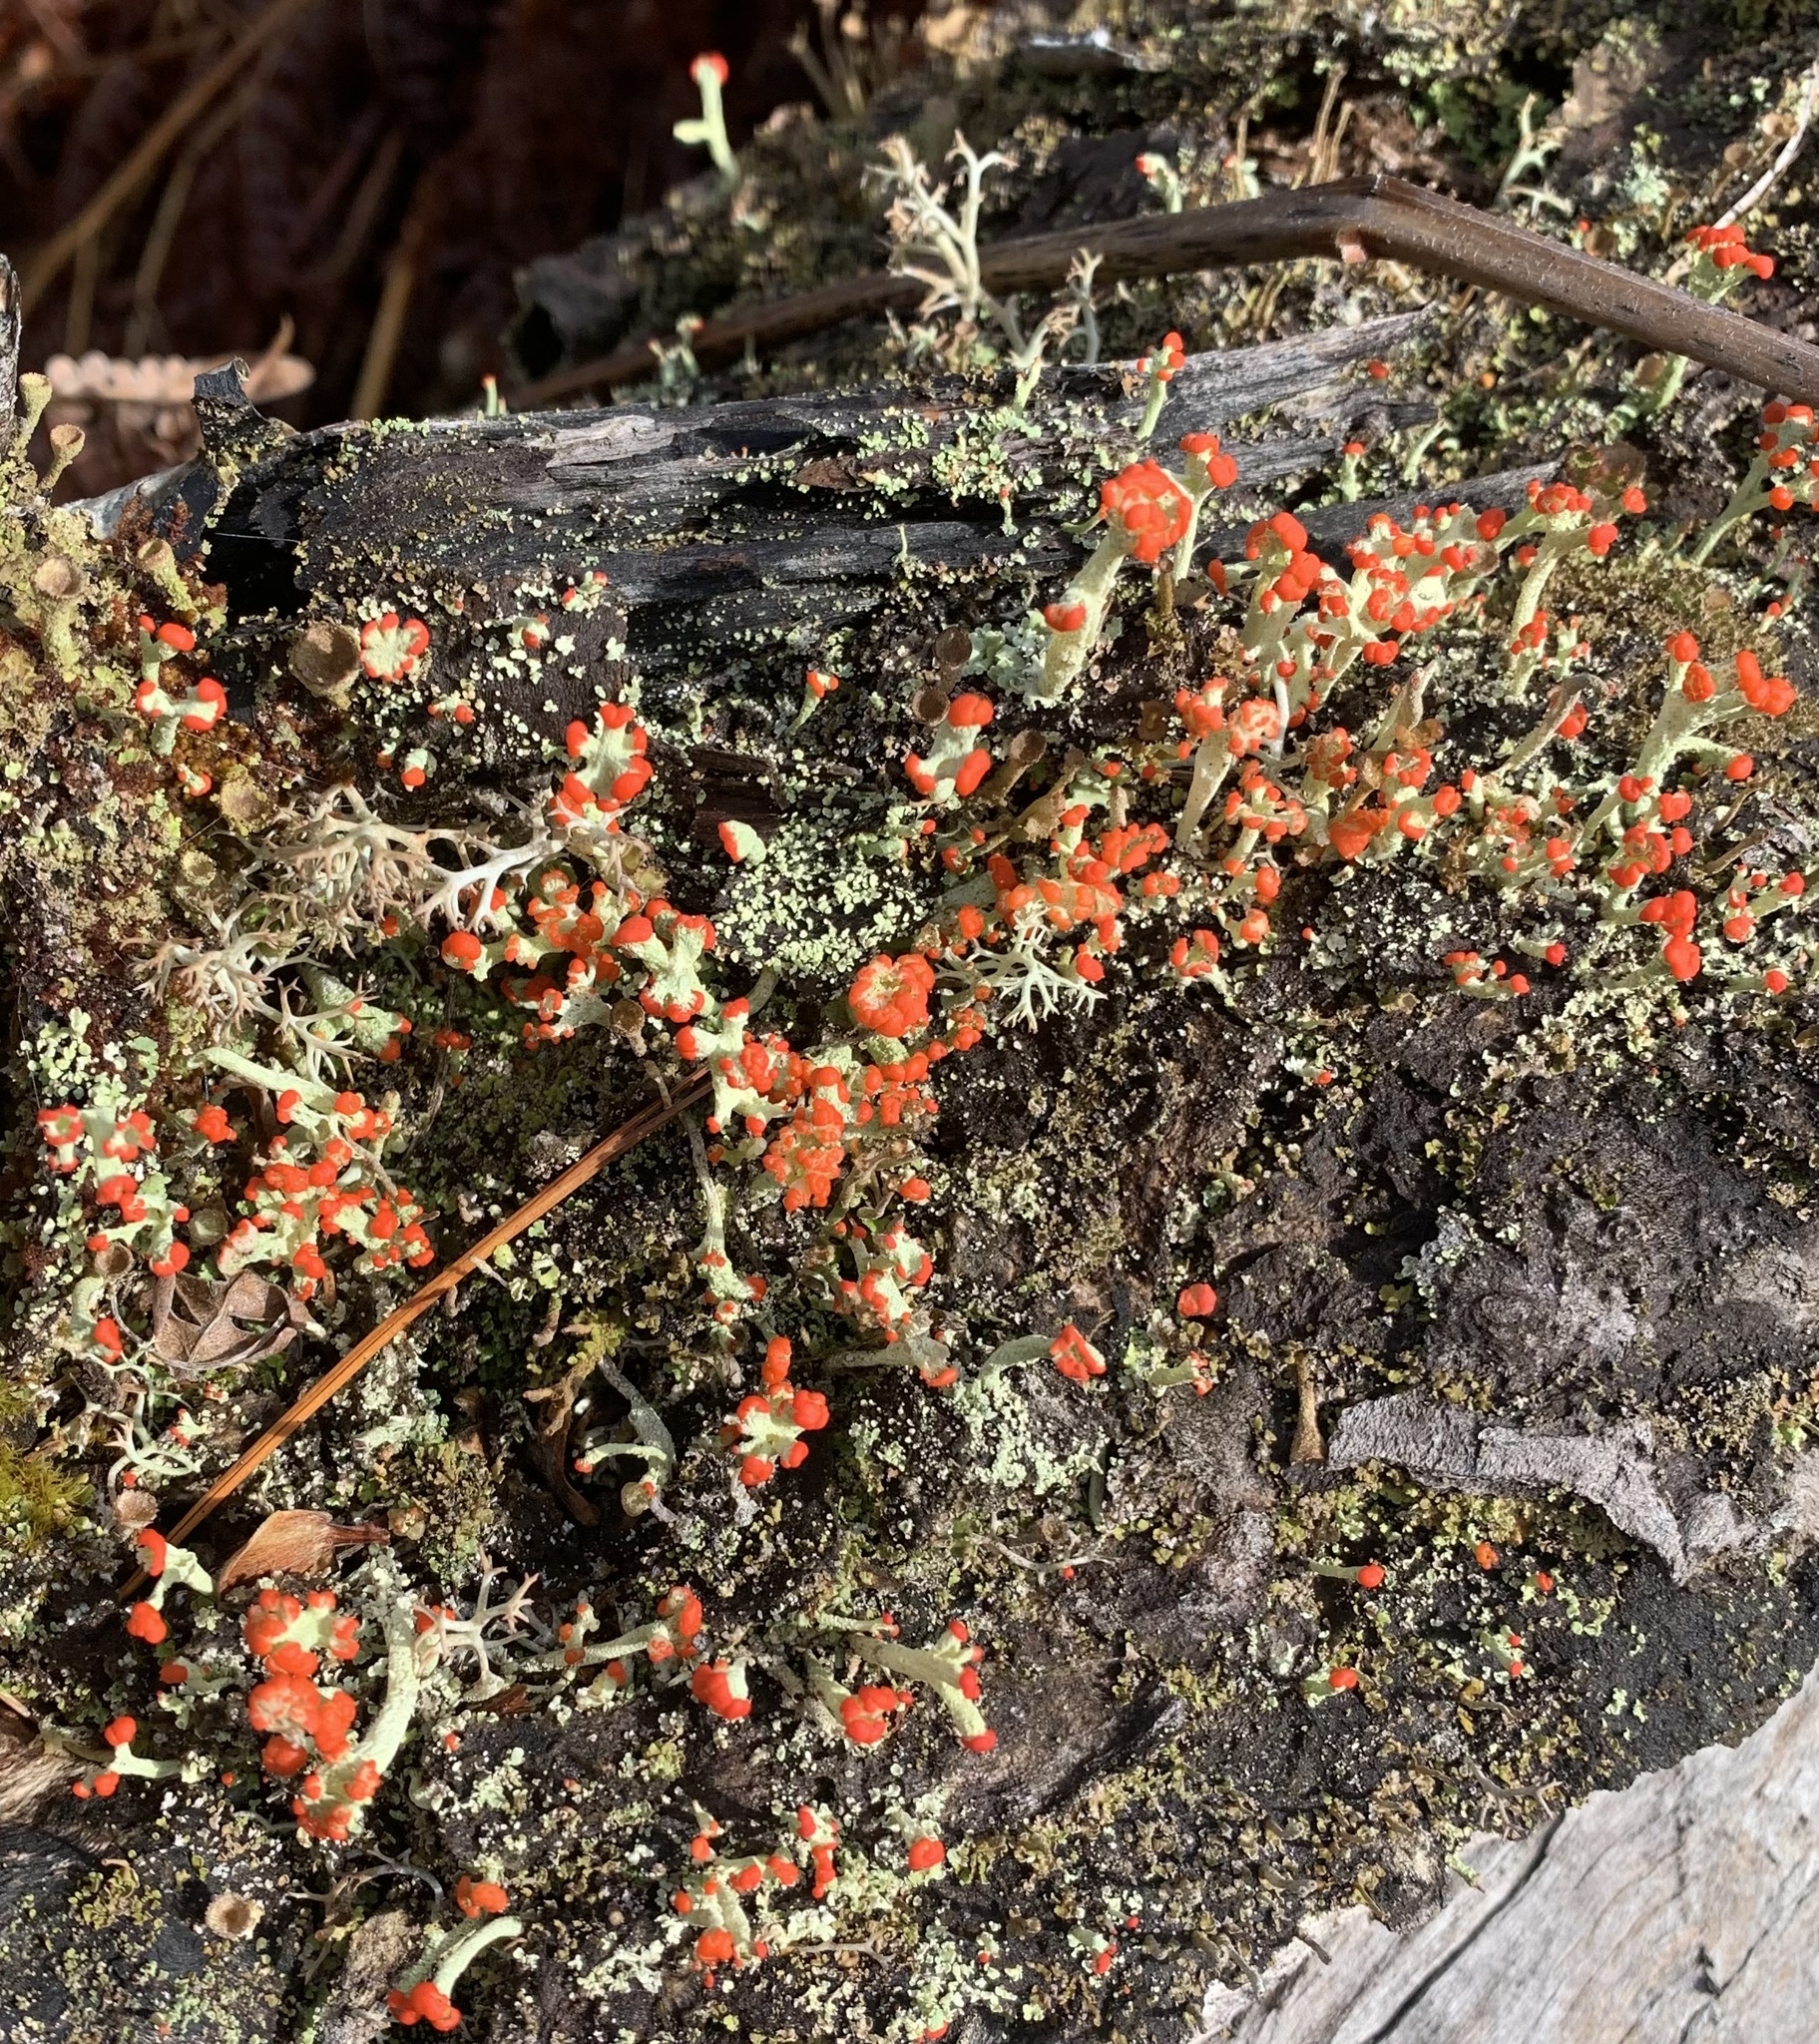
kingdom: Fungi
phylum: Ascomycota
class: Lecanoromycetes
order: Lecanorales
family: Cladoniaceae
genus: Cladonia
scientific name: Cladonia cristatella
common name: British soldier lichen
